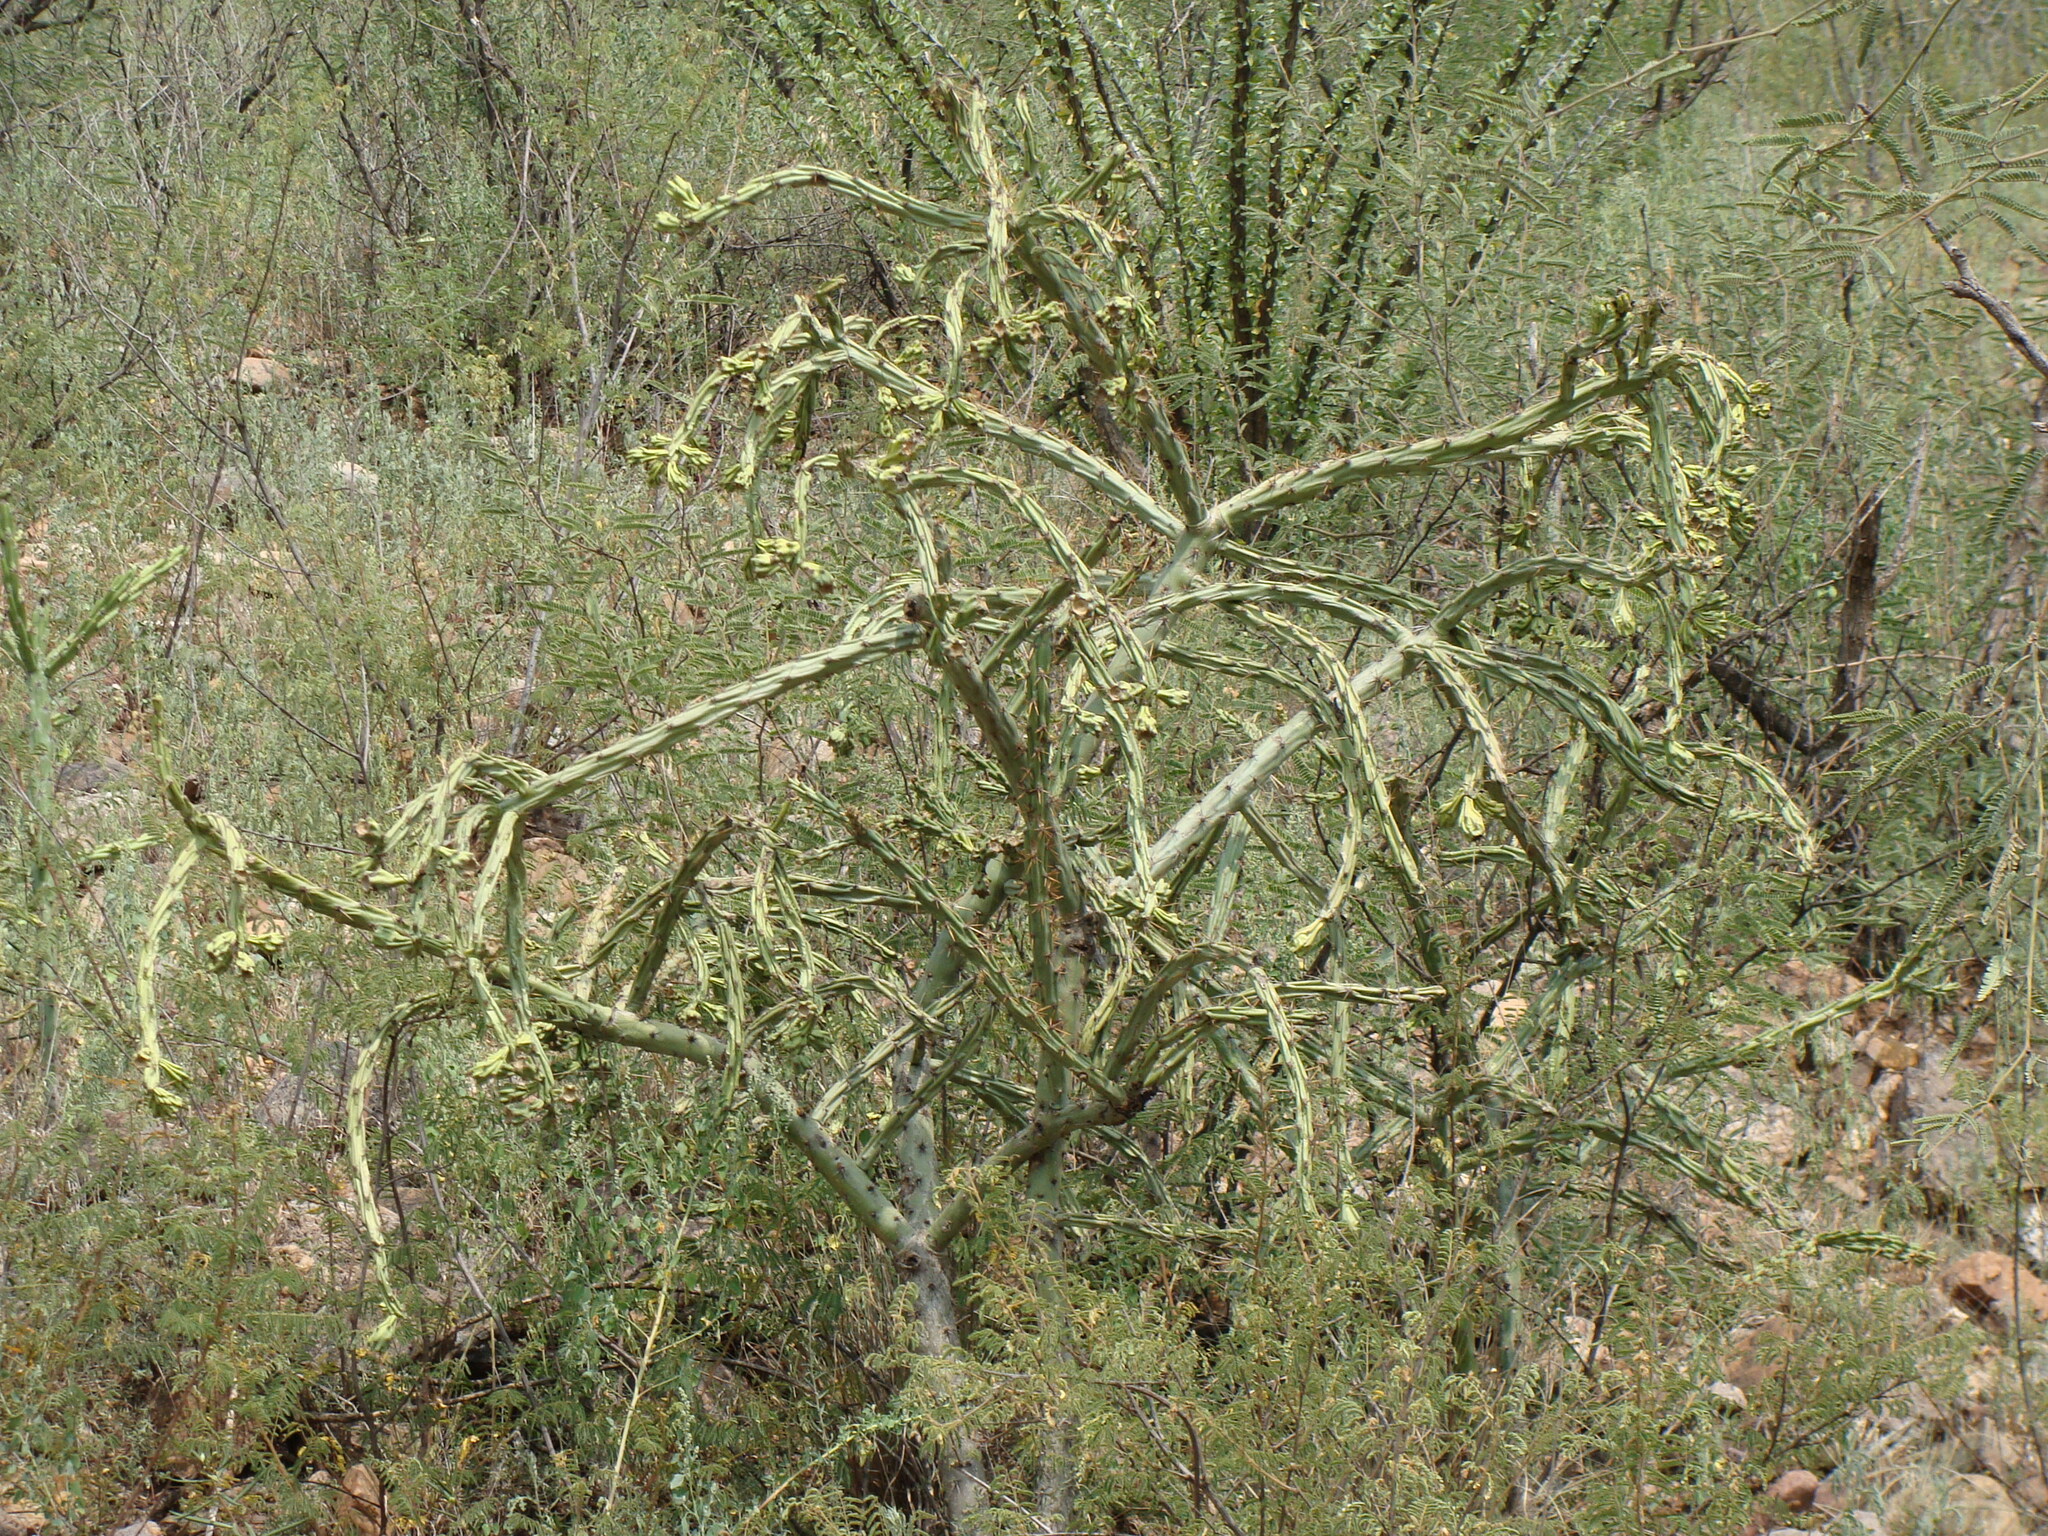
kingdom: Plantae
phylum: Tracheophyta
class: Magnoliopsida
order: Caryophyllales
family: Cactaceae
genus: Cylindropuntia
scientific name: Cylindropuntia thurberi
